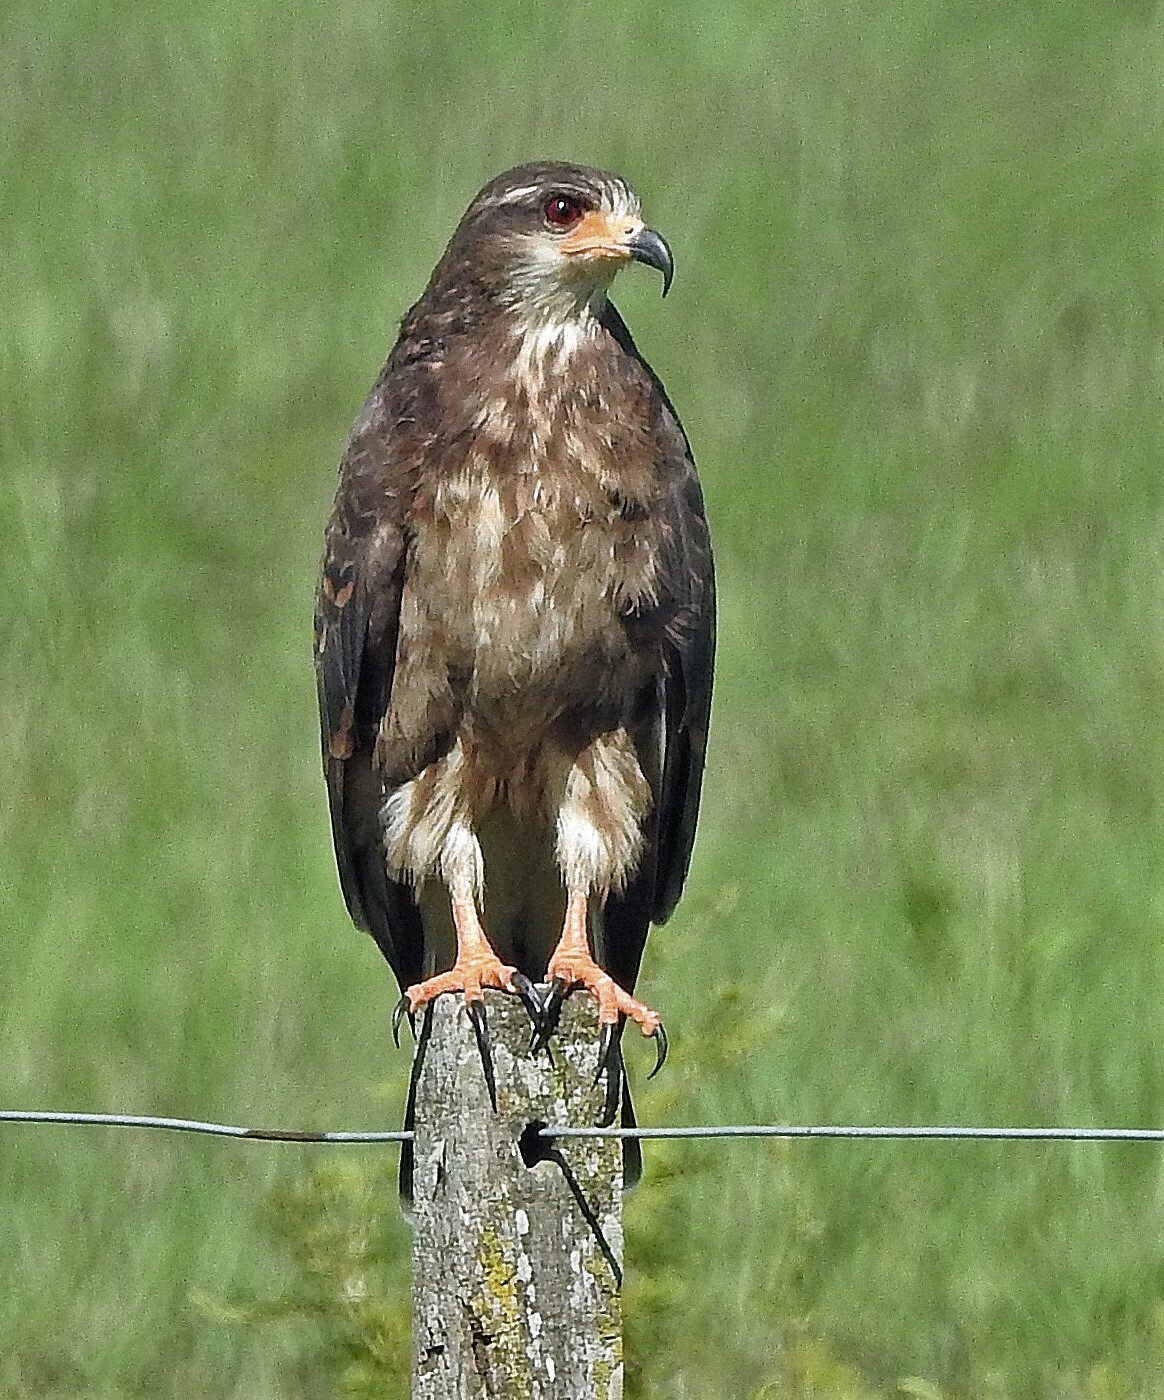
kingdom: Animalia
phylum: Chordata
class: Aves
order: Accipitriformes
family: Accipitridae
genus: Rostrhamus
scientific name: Rostrhamus sociabilis
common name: Snail kite
